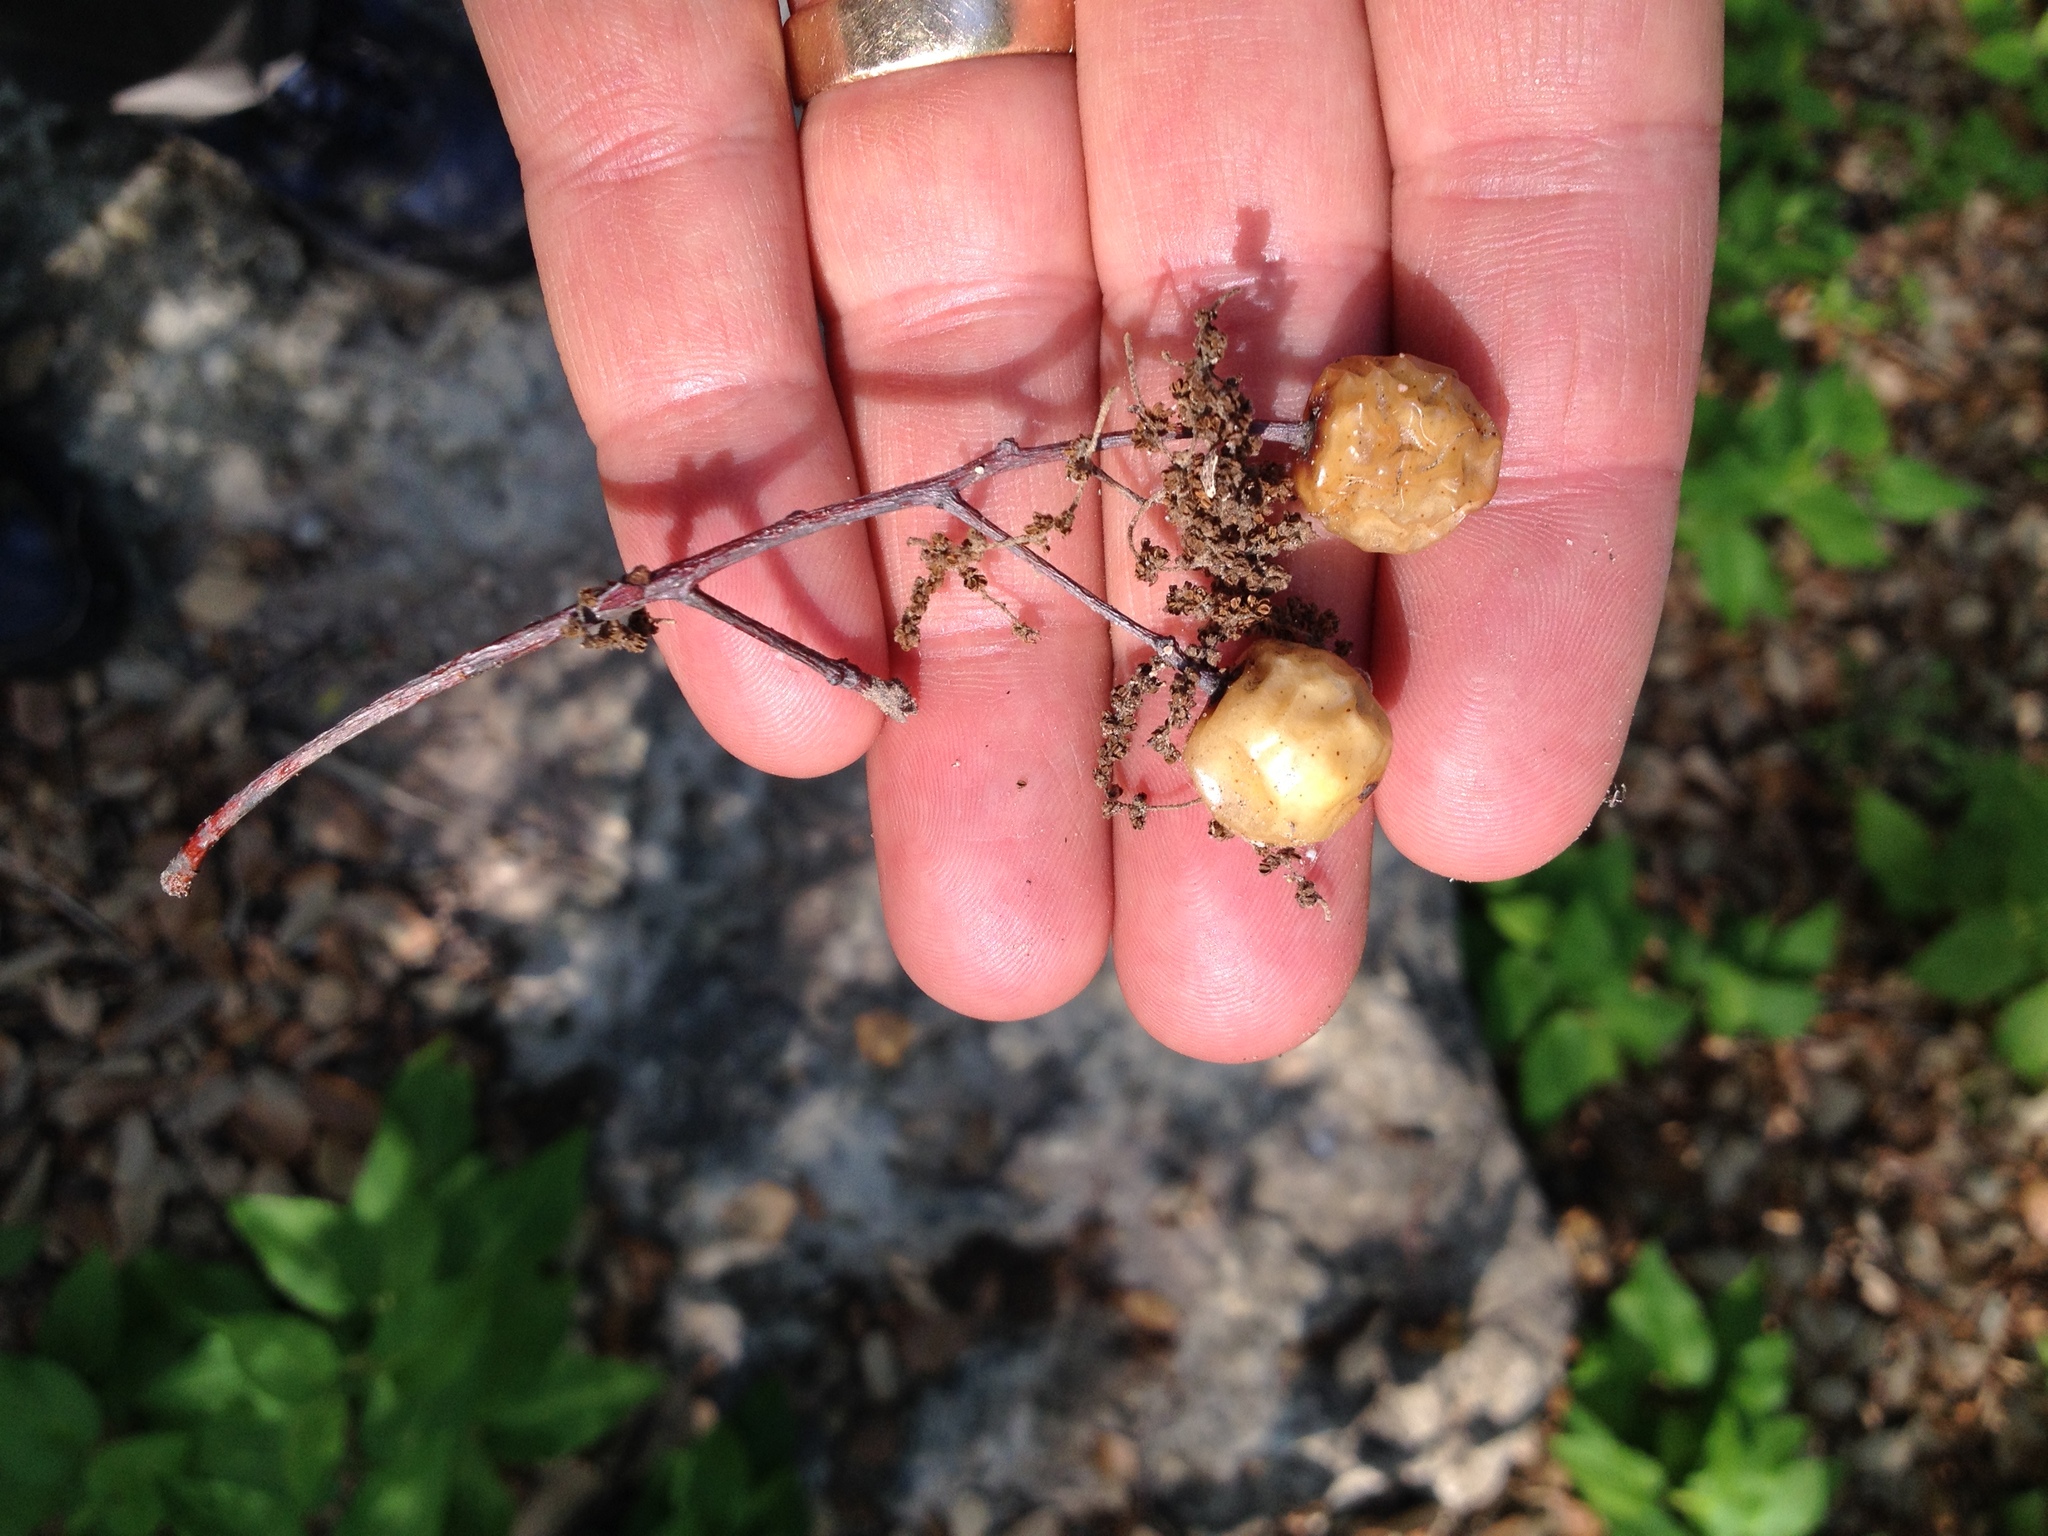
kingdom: Plantae
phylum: Tracheophyta
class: Magnoliopsida
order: Sapindales
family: Meliaceae
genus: Melia
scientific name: Melia azedarach
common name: Chinaberrytree
